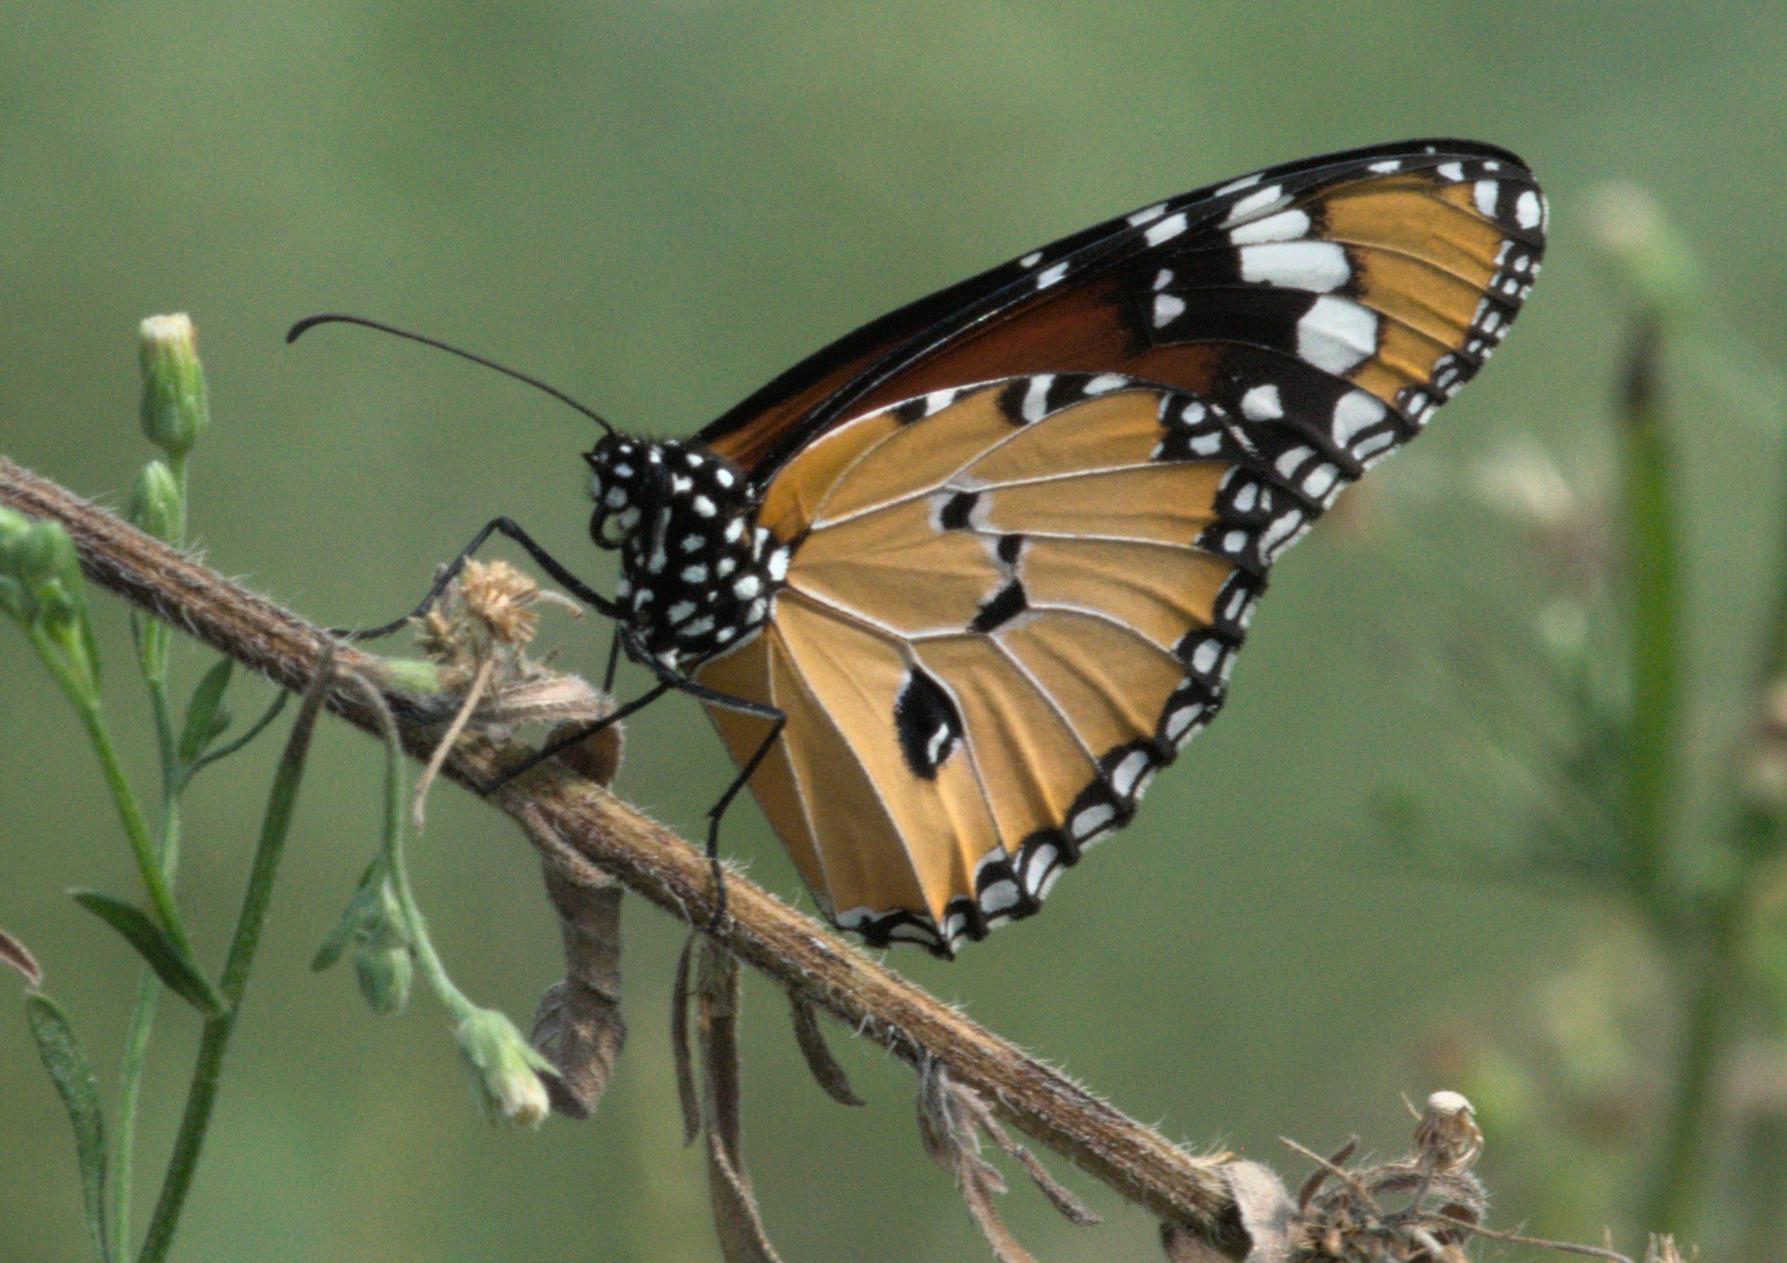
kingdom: Animalia
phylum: Arthropoda
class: Insecta
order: Lepidoptera
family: Nymphalidae
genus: Danaus
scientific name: Danaus chrysippus
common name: Plain tiger
